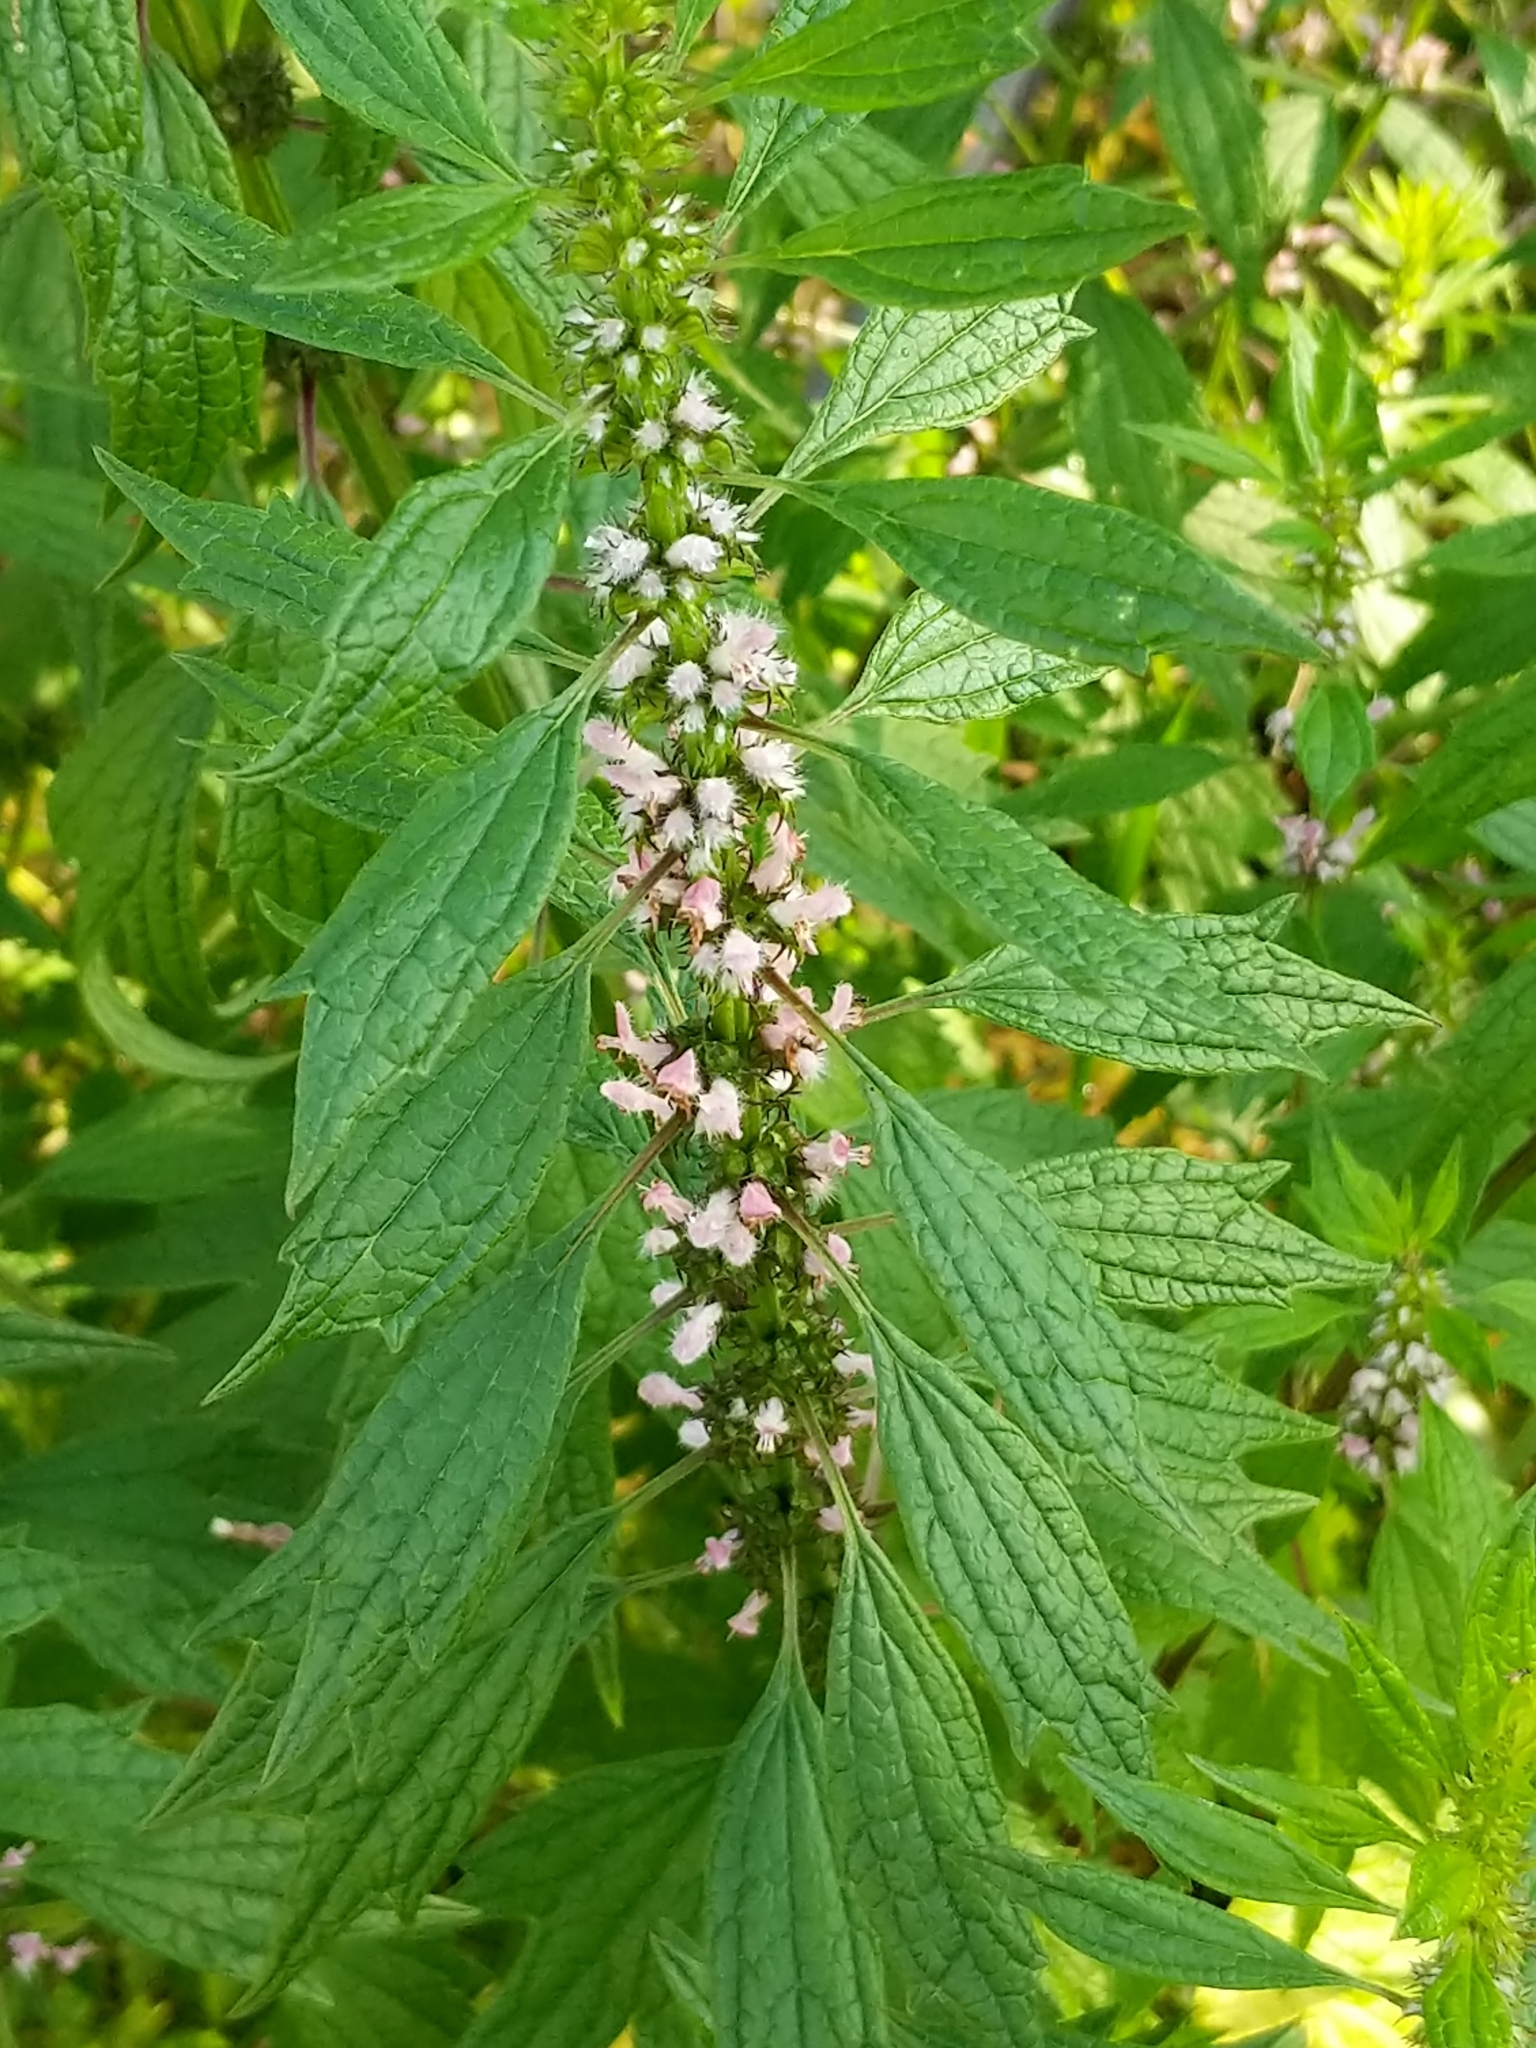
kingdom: Plantae
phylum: Tracheophyta
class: Magnoliopsida
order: Lamiales
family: Lamiaceae
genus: Leonurus
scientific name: Leonurus cardiaca
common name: Motherwort
